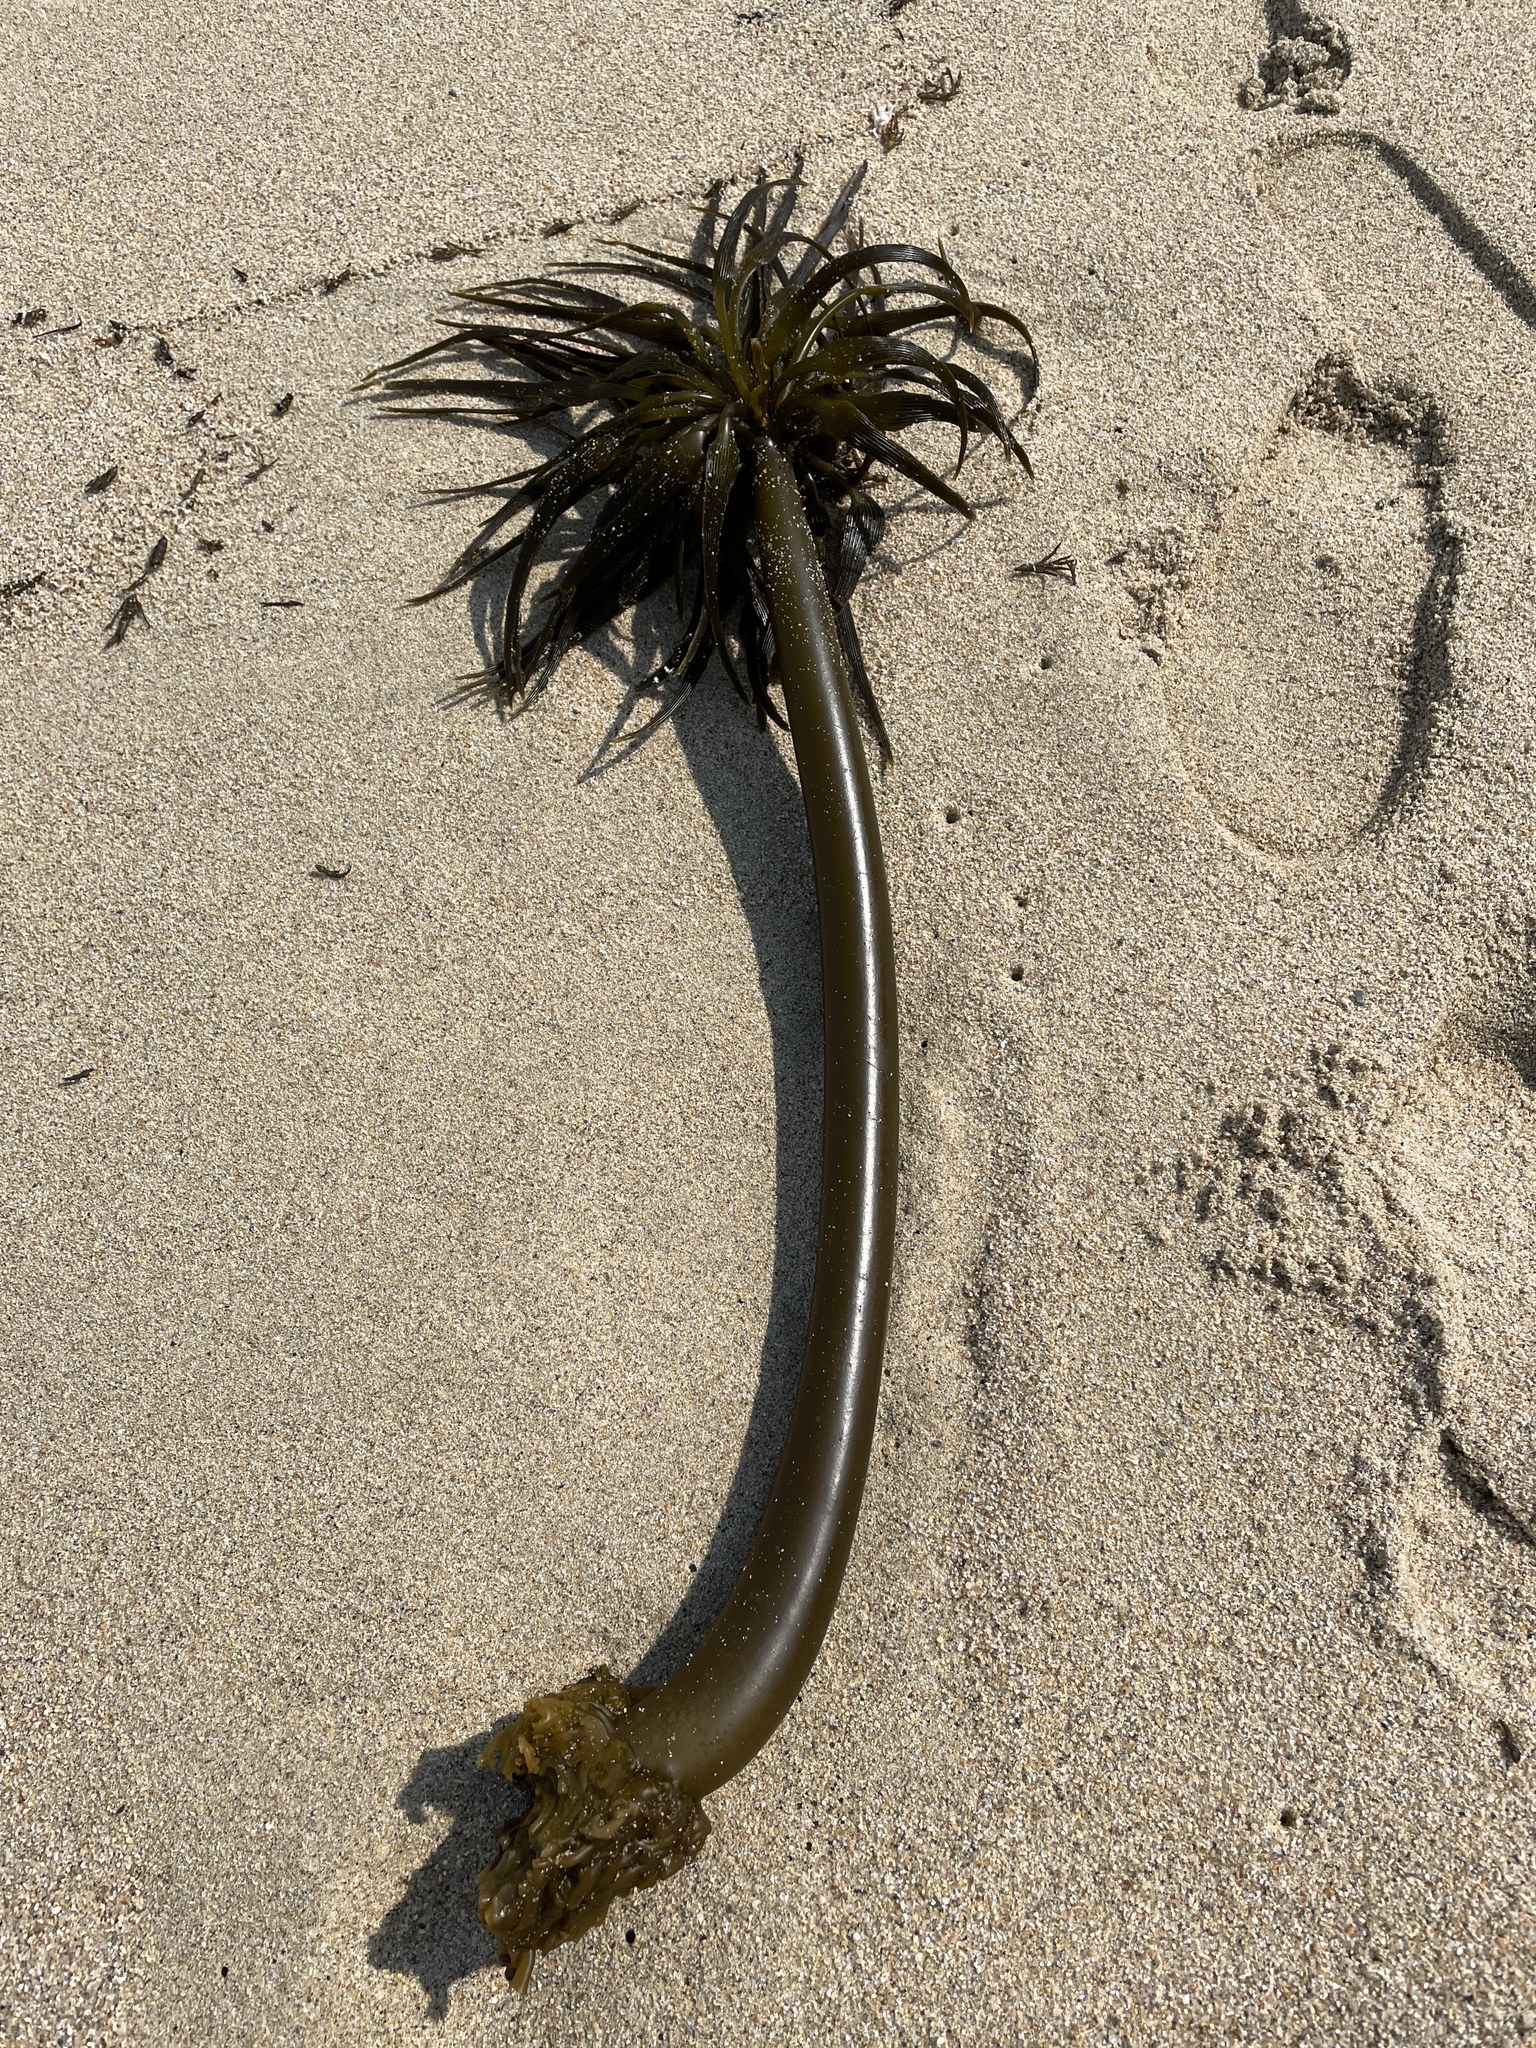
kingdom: Chromista
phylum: Ochrophyta
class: Phaeophyceae
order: Laminariales
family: Laminariaceae
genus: Postelsia
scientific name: Postelsia palmiformis
